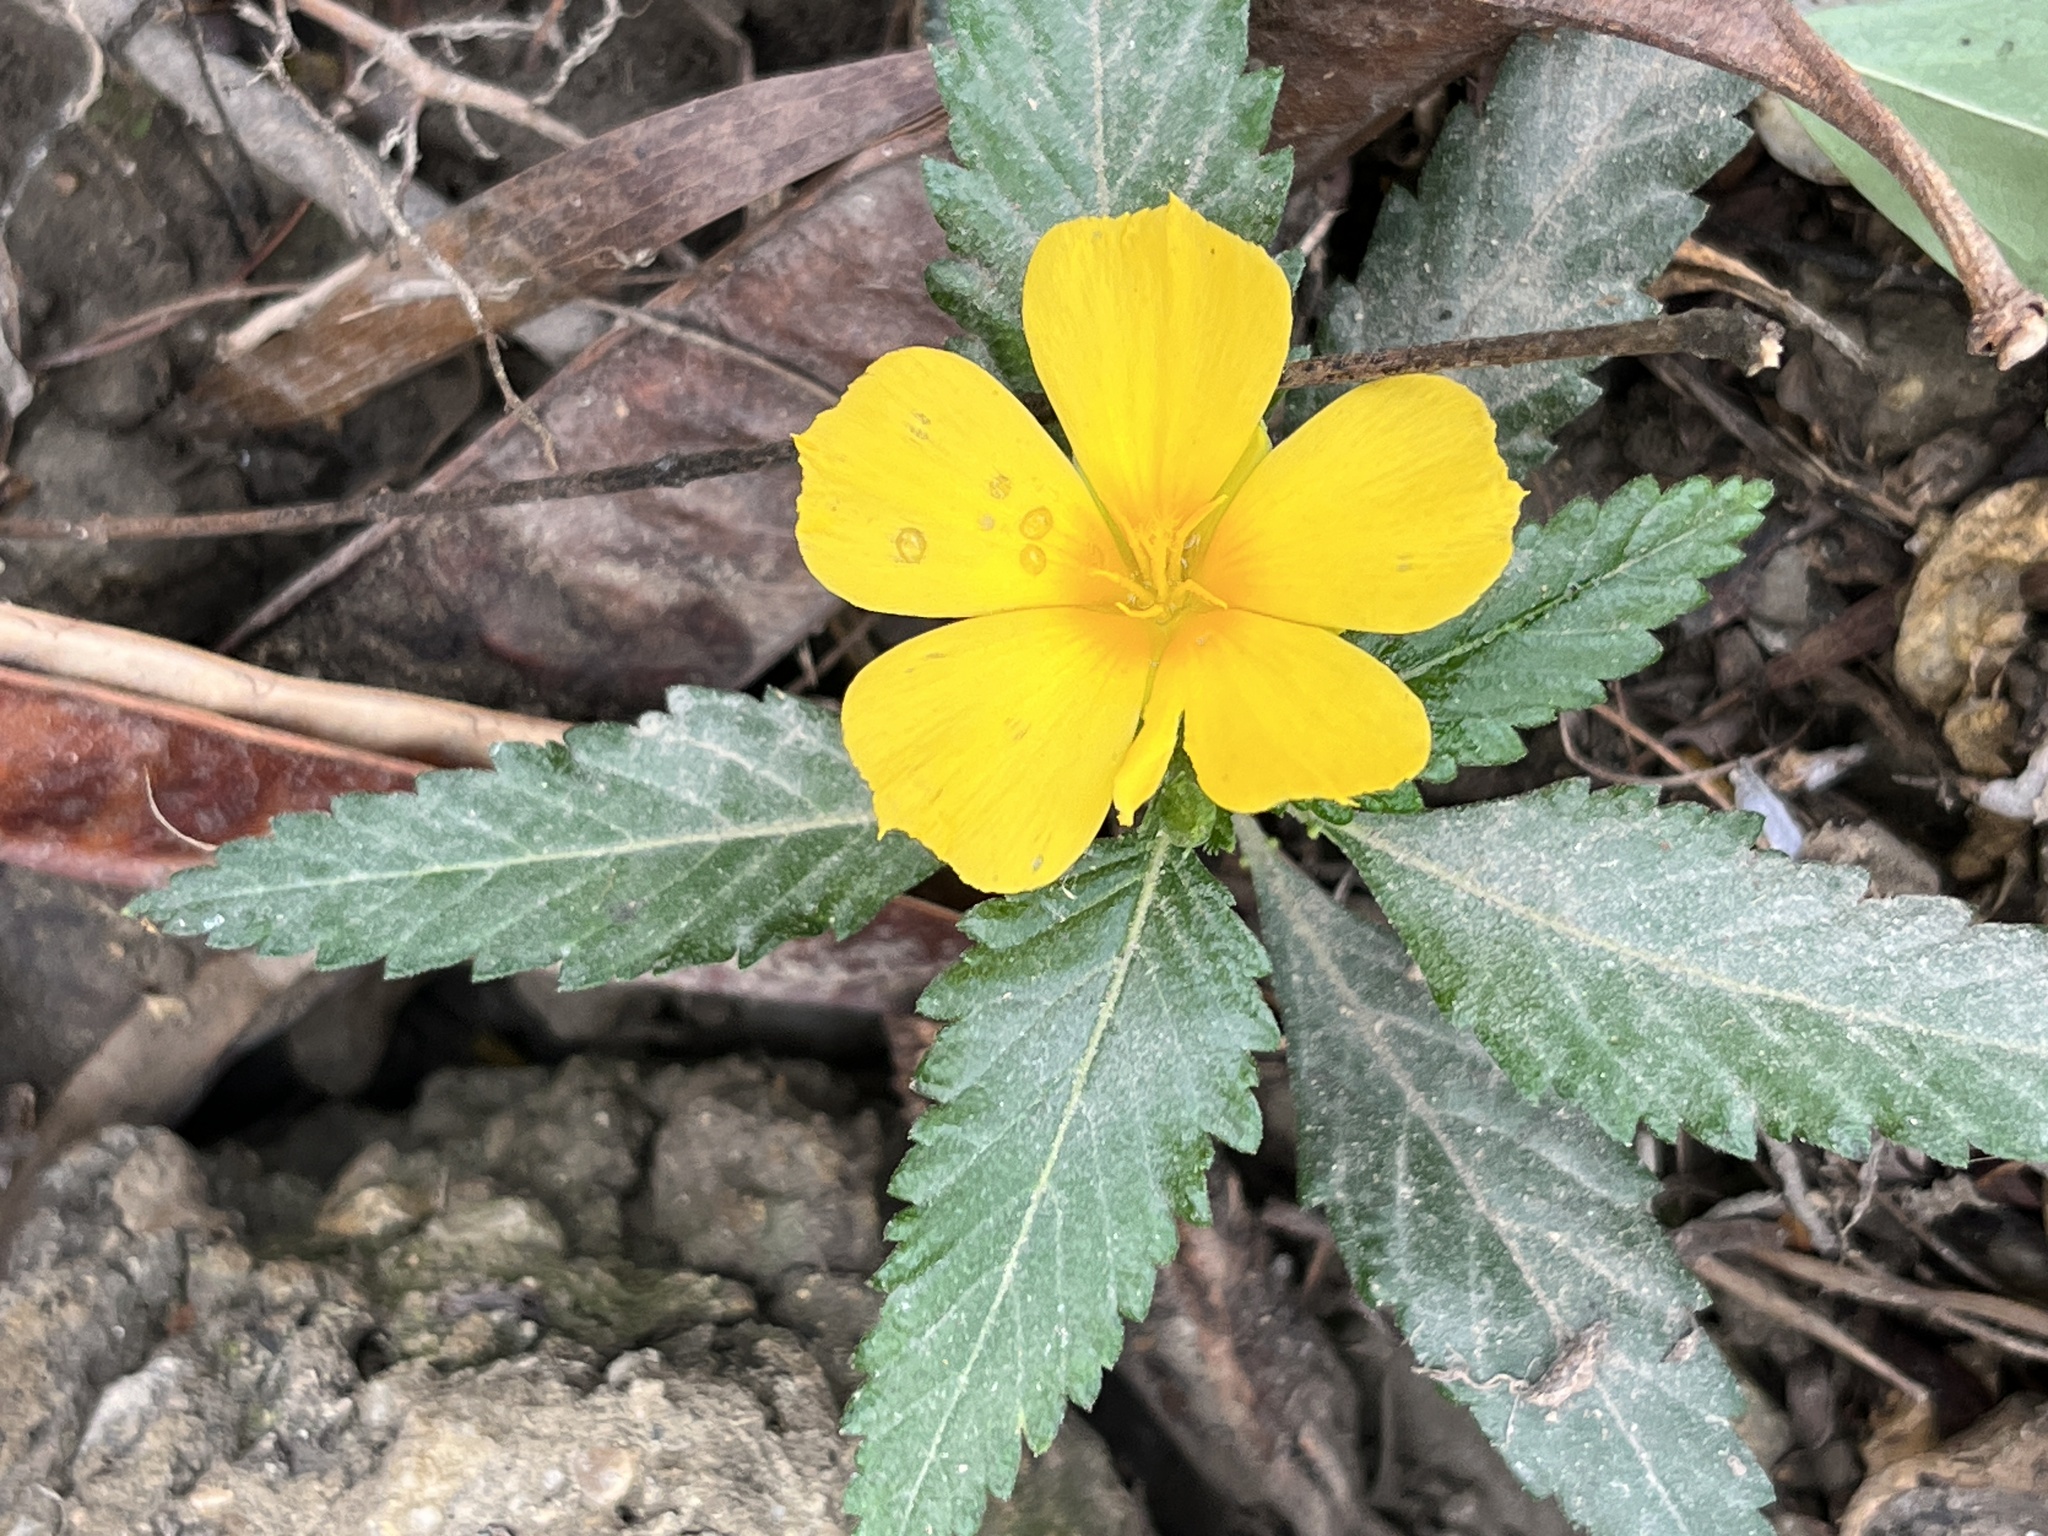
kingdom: Plantae
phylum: Tracheophyta
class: Magnoliopsida
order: Malpighiales
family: Turneraceae
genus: Turnera
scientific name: Turnera ulmifolia
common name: Ramgoat dashalong
